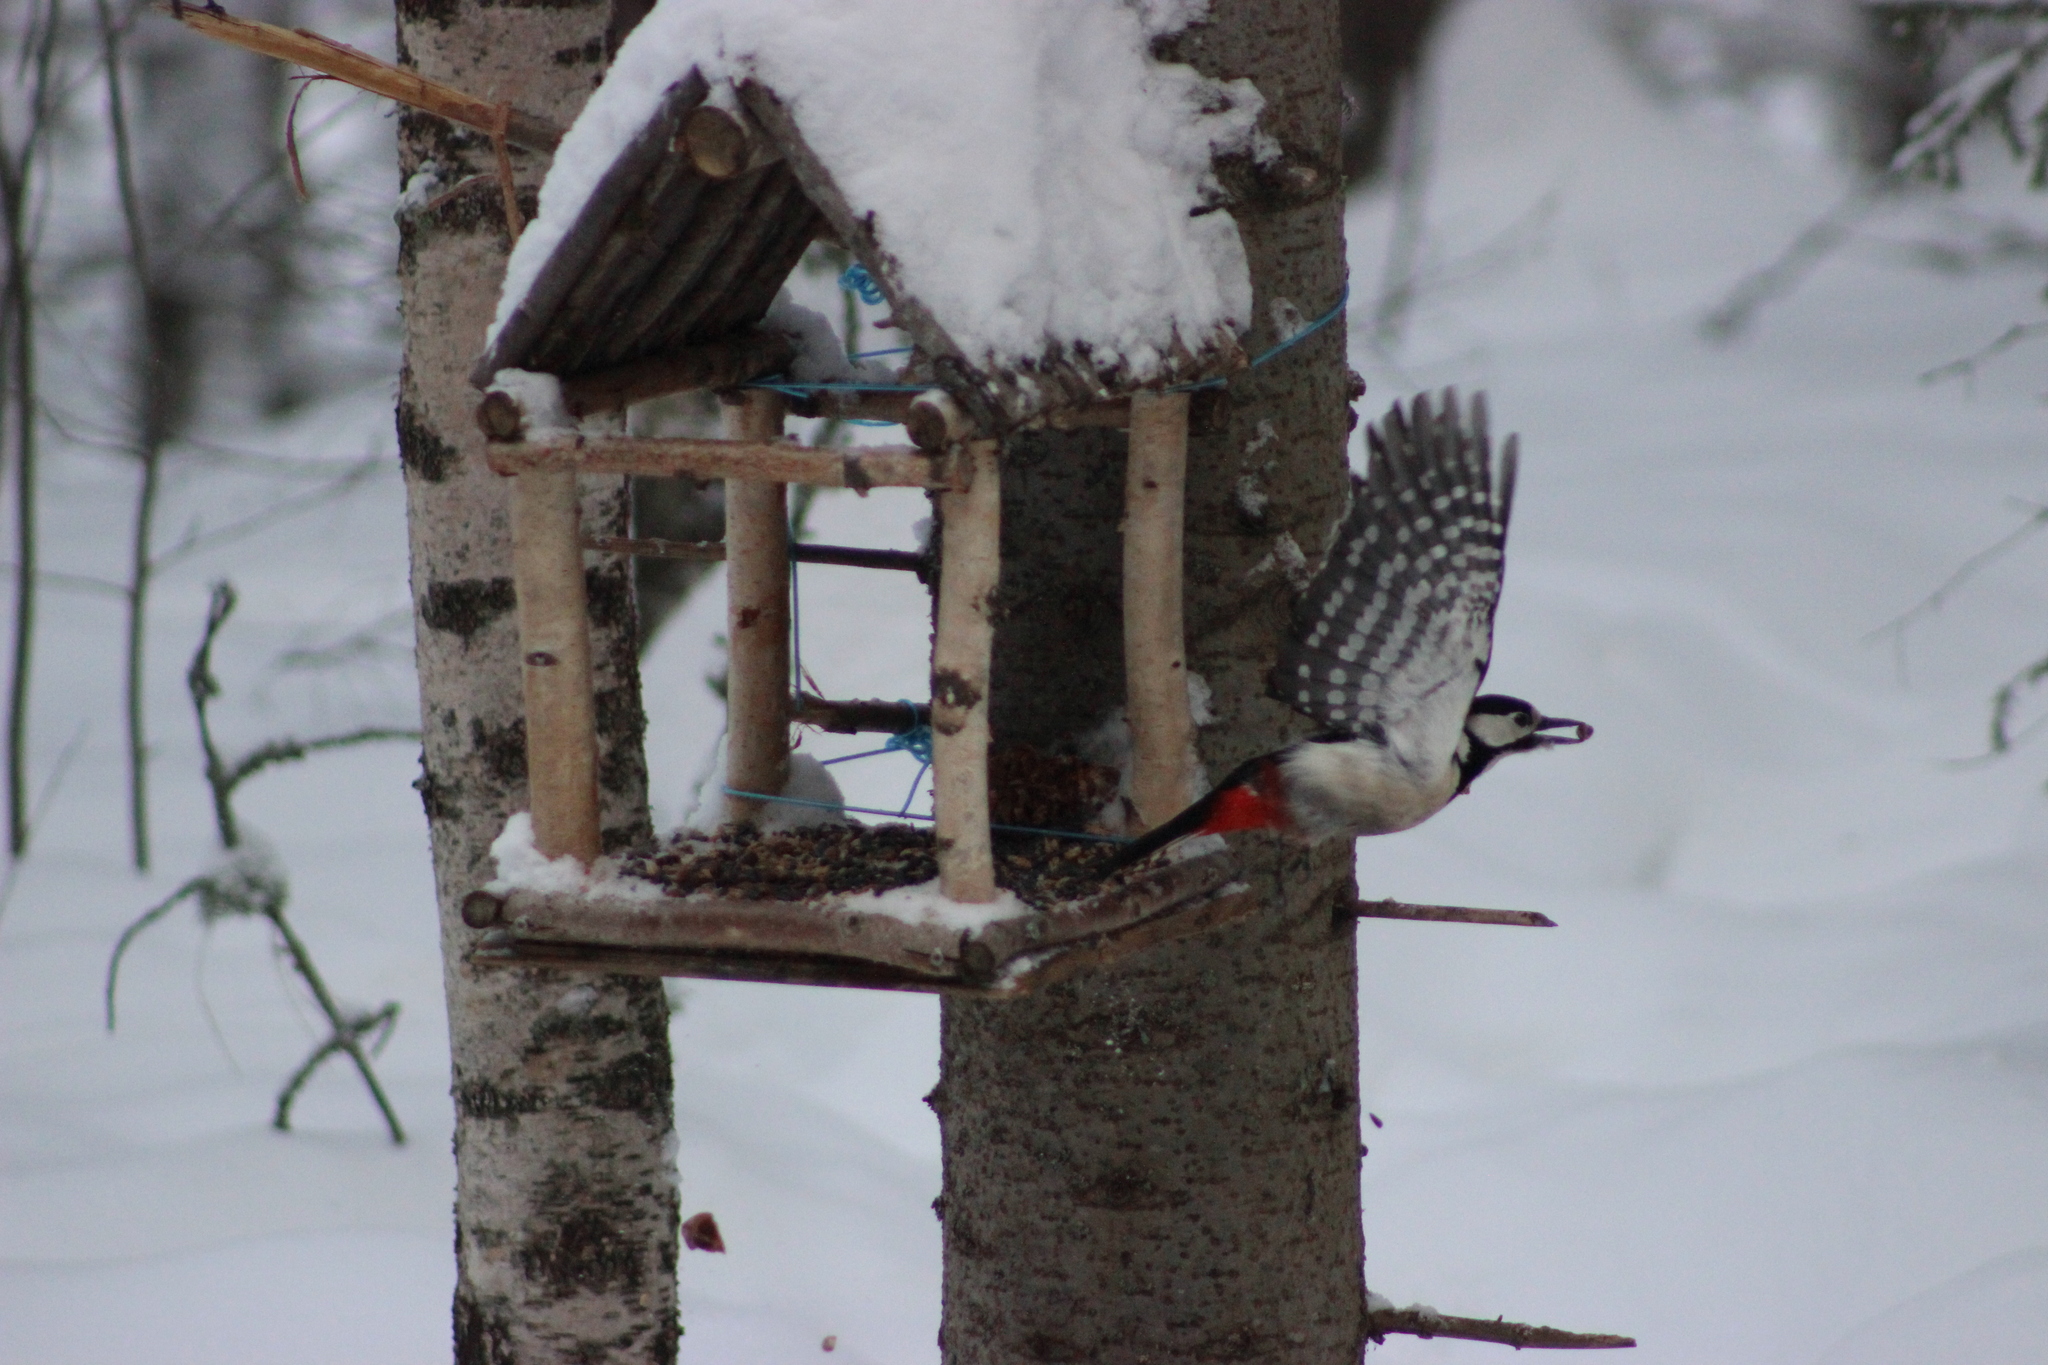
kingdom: Animalia
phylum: Chordata
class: Aves
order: Piciformes
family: Picidae
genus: Dendrocopos
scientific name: Dendrocopos major
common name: Great spotted woodpecker
